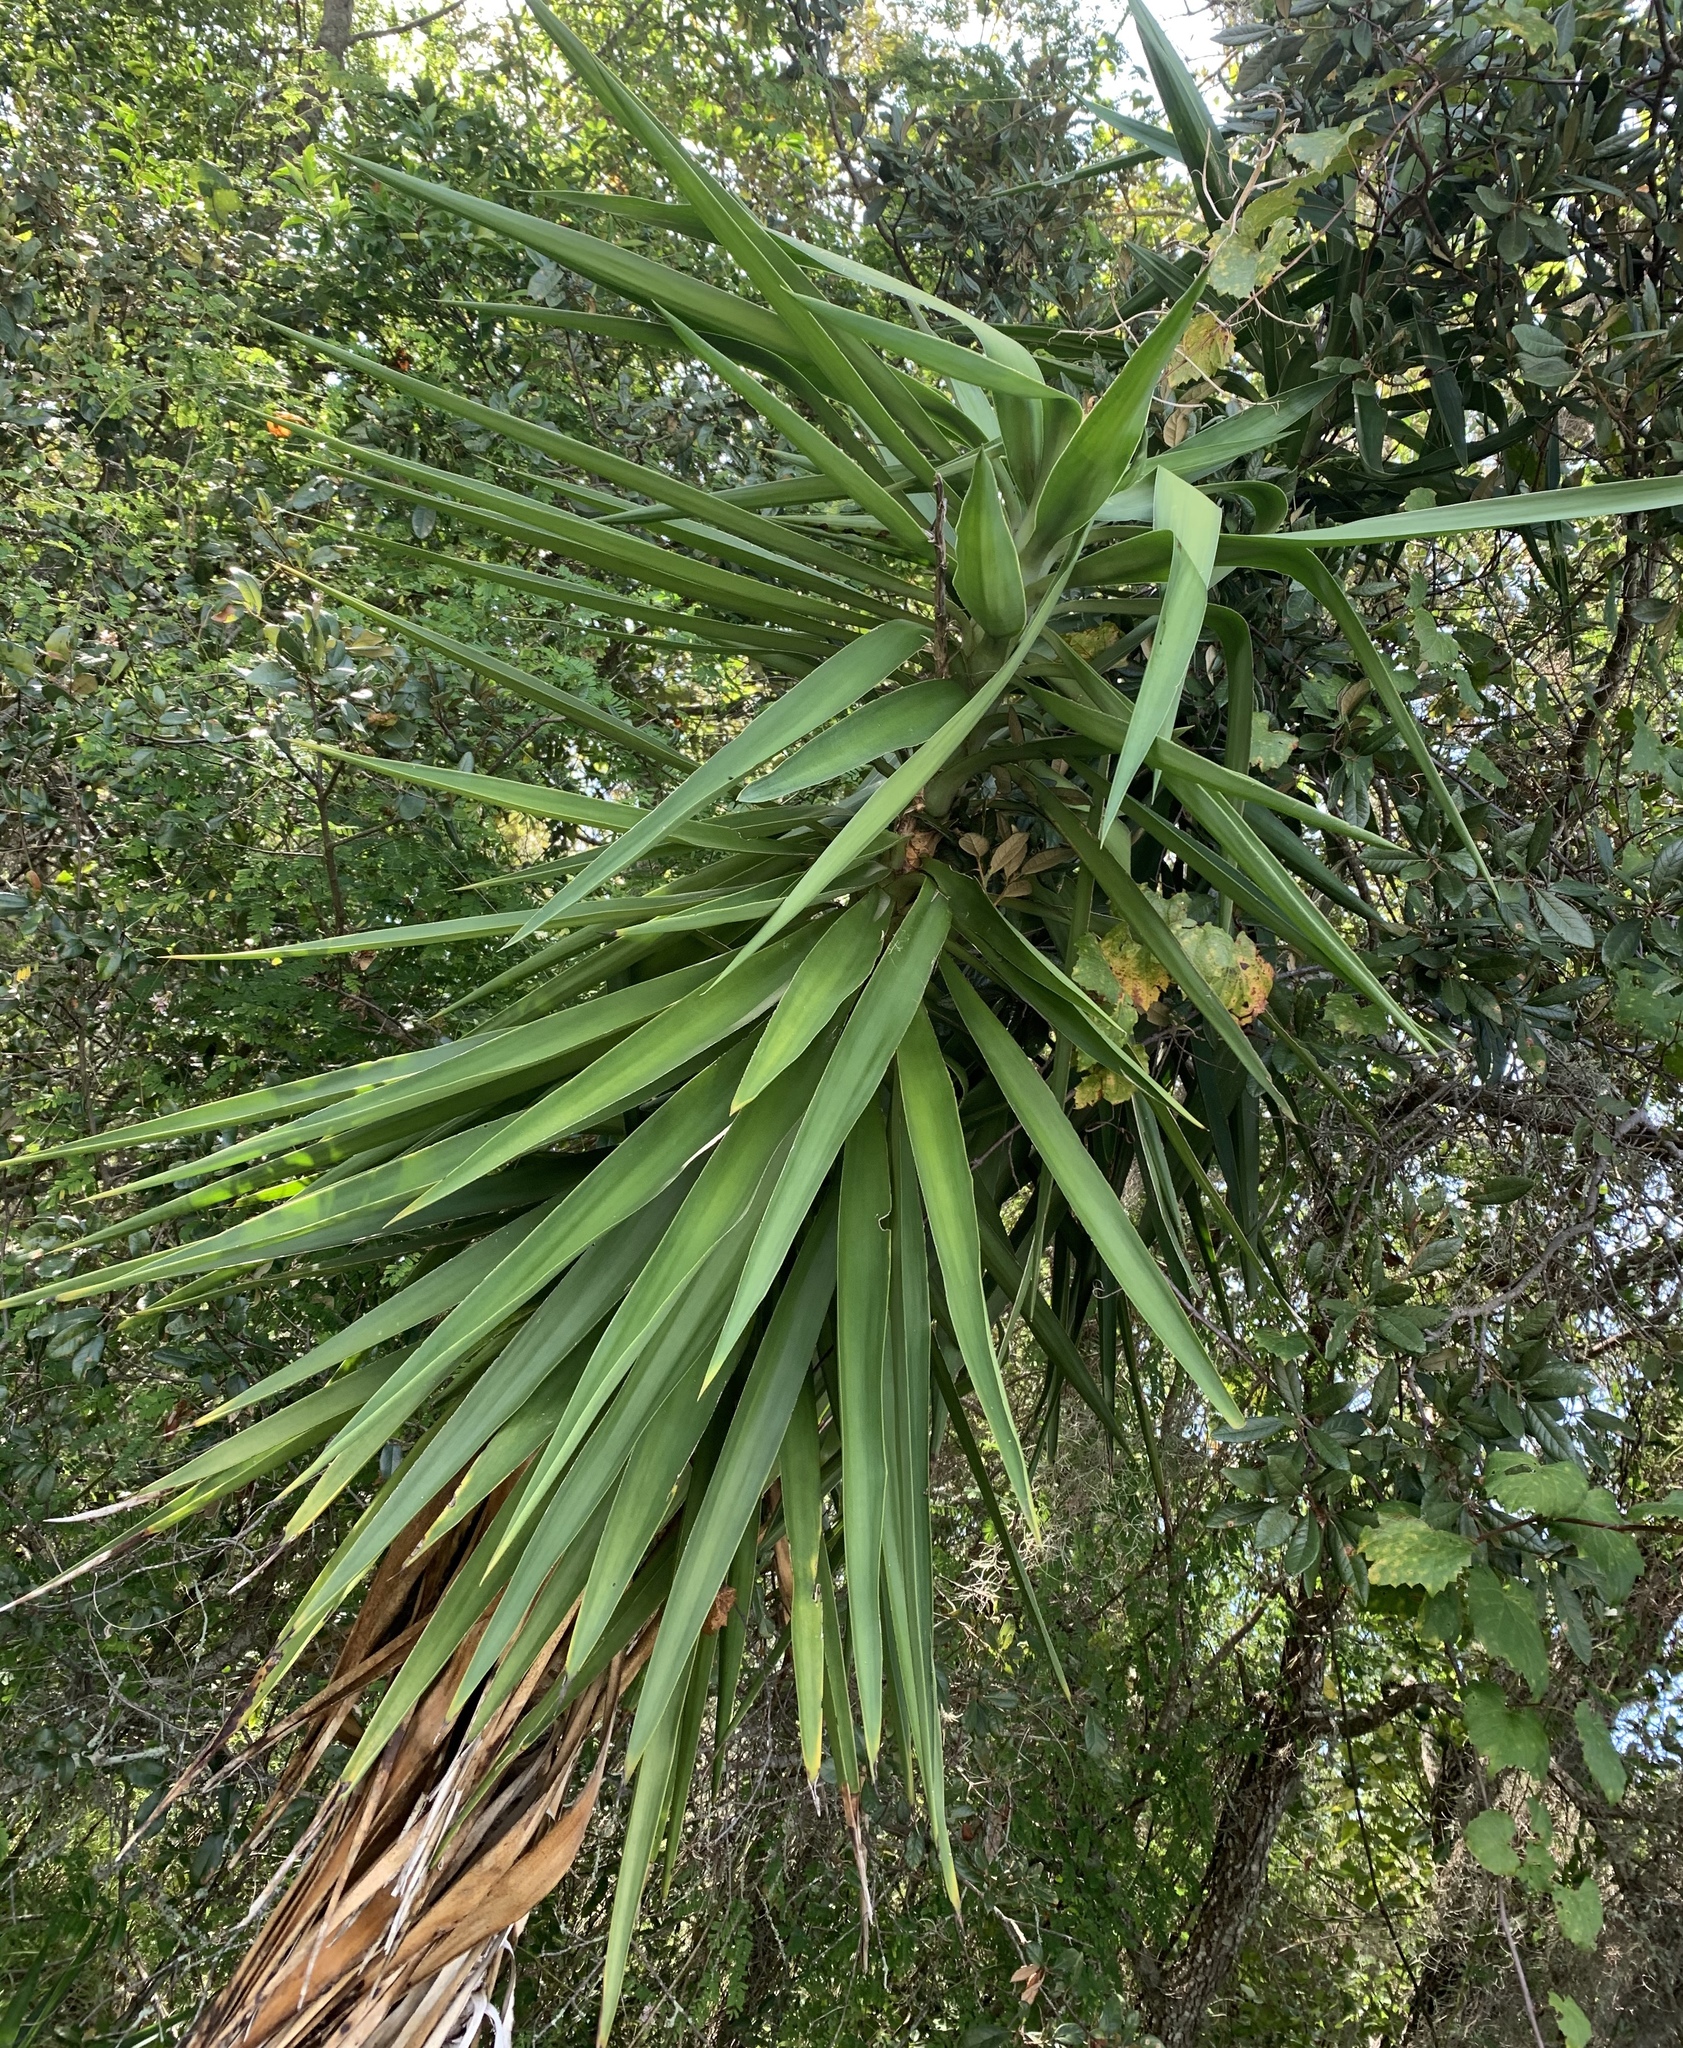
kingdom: Plantae
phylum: Tracheophyta
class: Liliopsida
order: Asparagales
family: Asparagaceae
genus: Yucca
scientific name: Yucca aloifolia
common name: Aloe yucca
